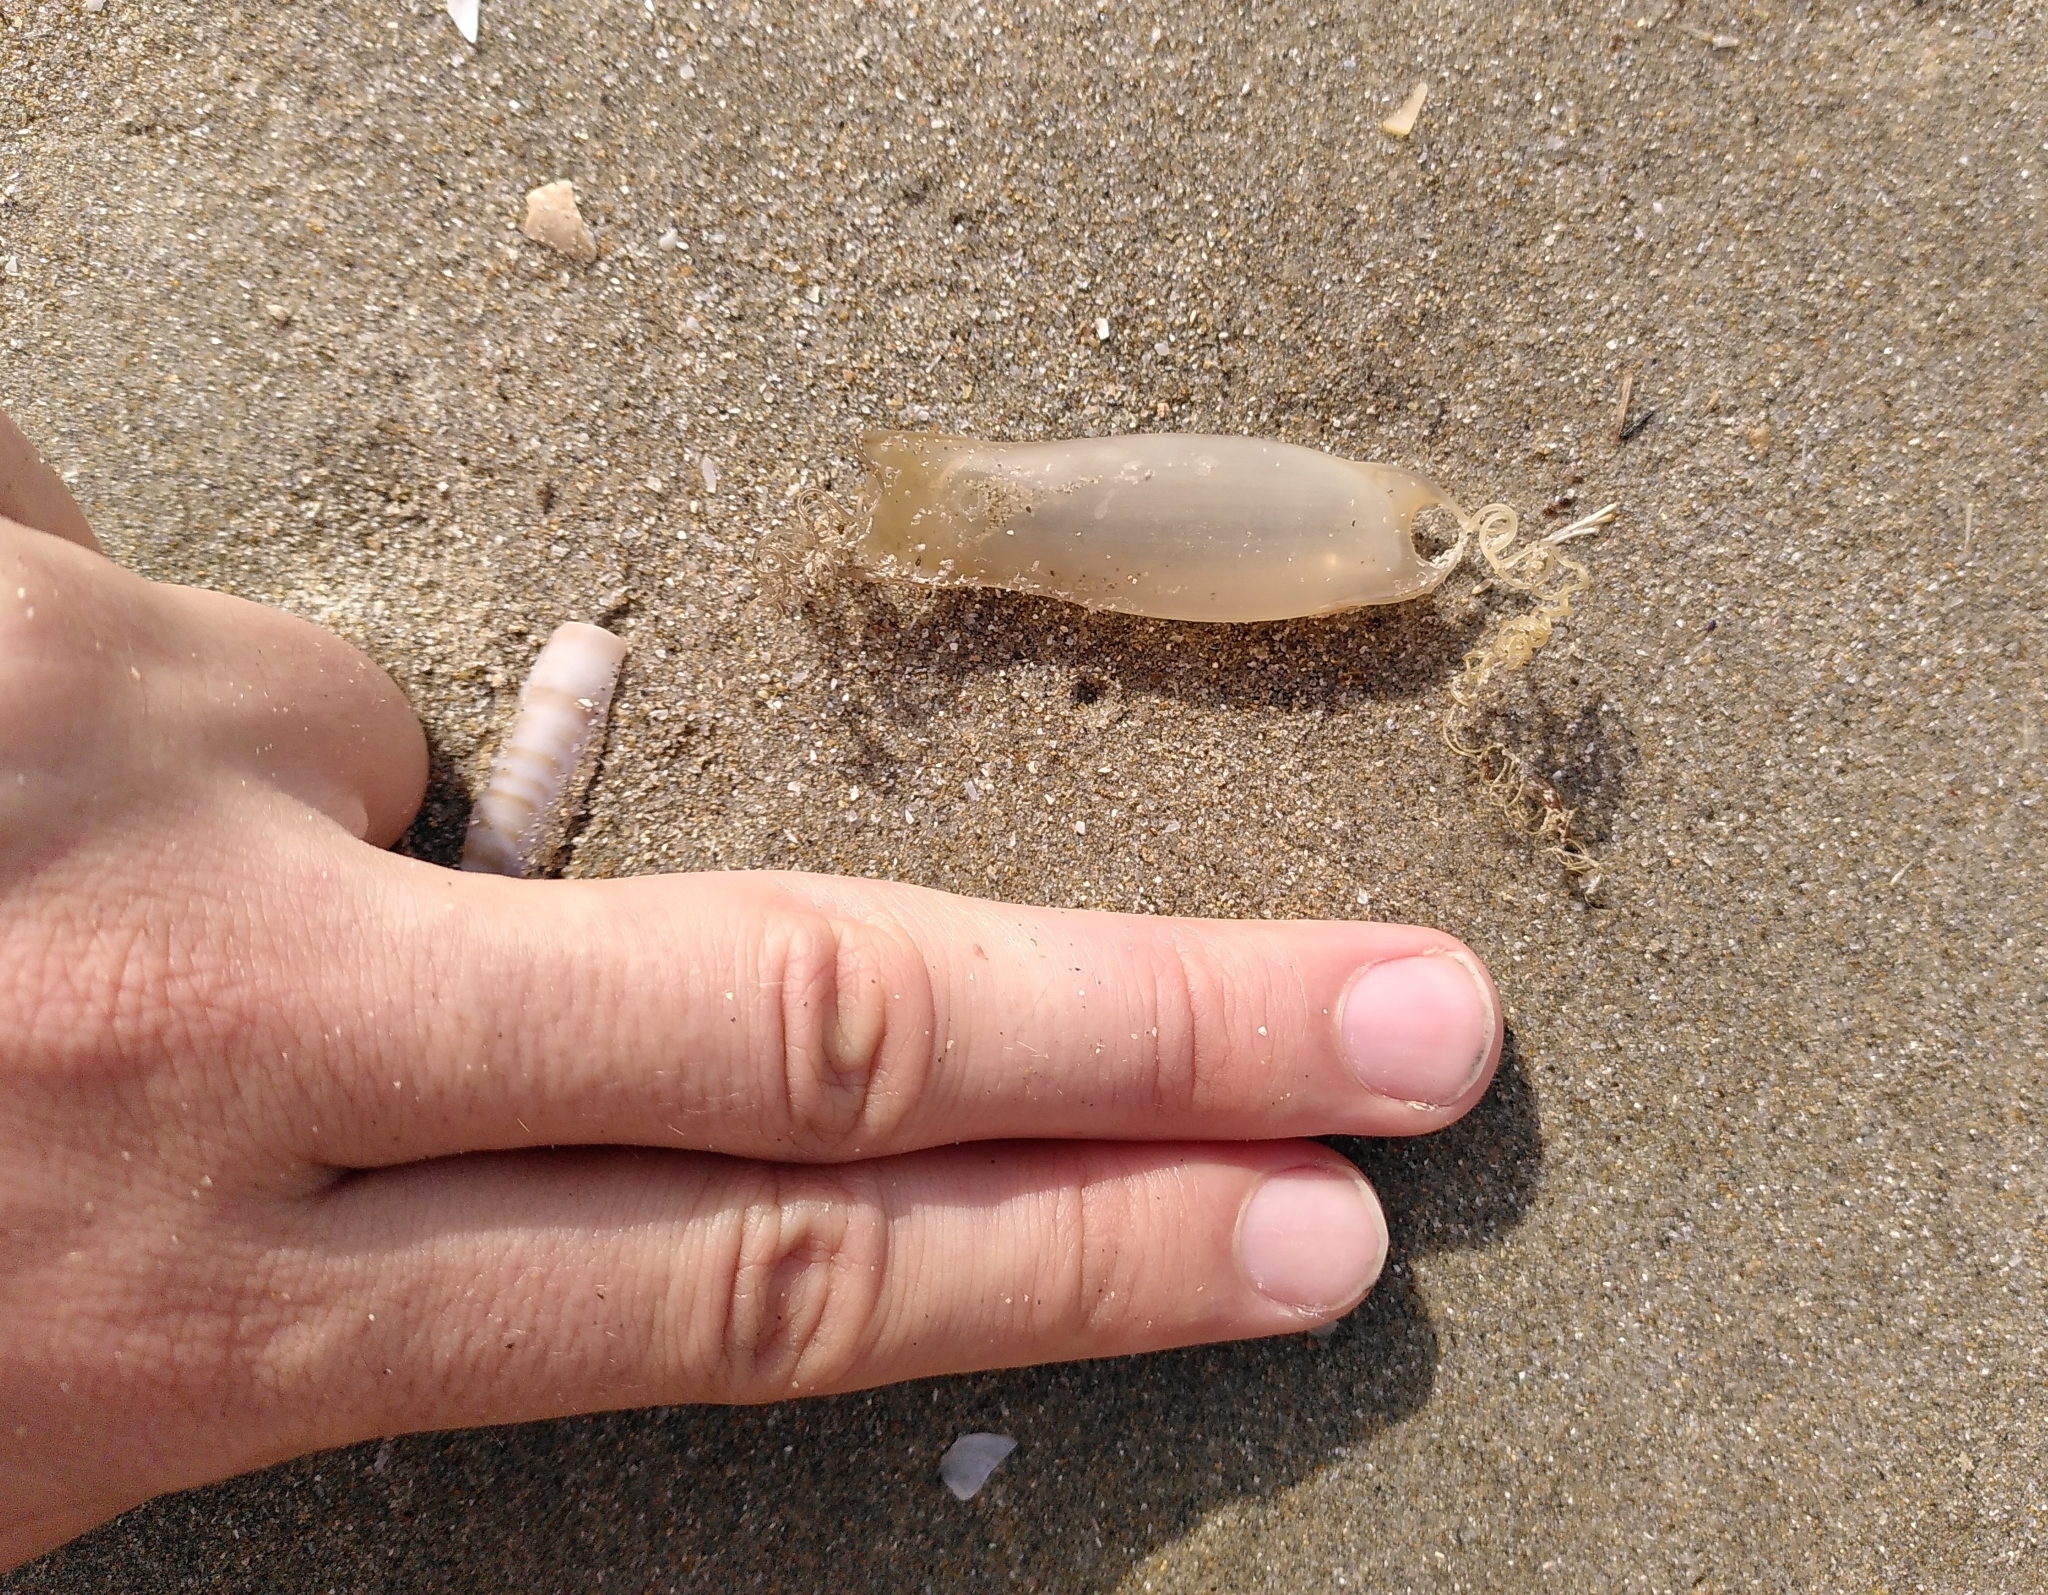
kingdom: Animalia
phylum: Chordata
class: Elasmobranchii
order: Carcharhiniformes
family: Scyliorhinidae
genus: Scyliorhinus
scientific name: Scyliorhinus canicula
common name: Lesser spotted dogfish
